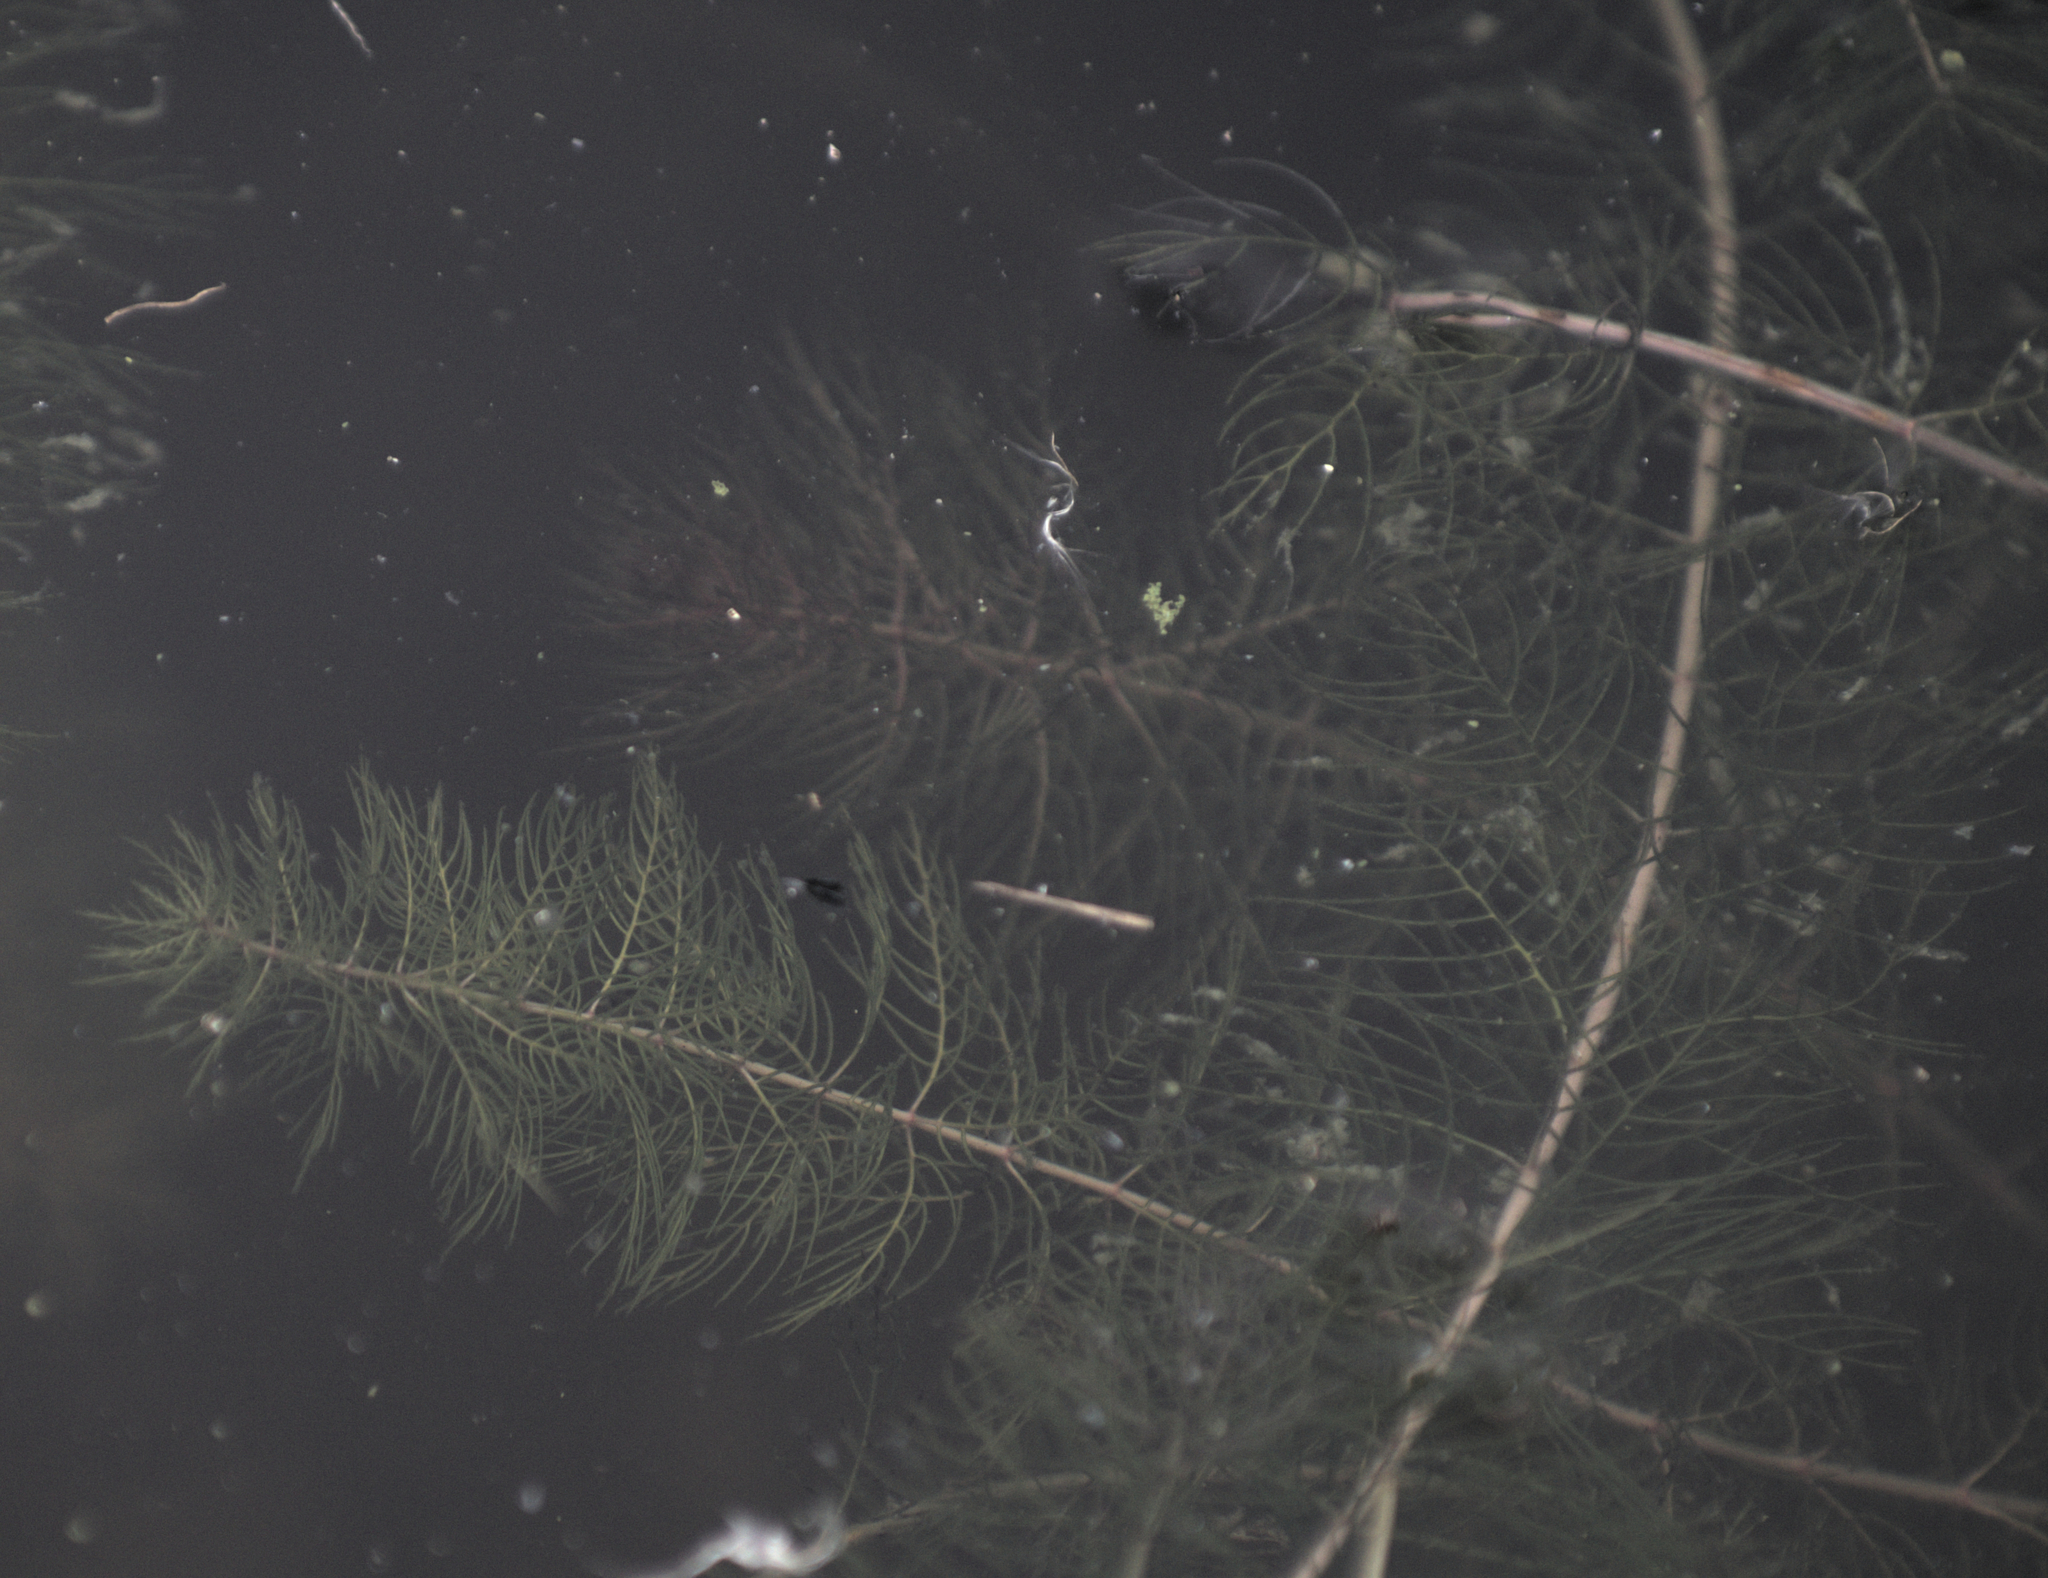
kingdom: Plantae
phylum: Tracheophyta
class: Magnoliopsida
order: Saxifragales
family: Haloragaceae
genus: Myriophyllum
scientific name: Myriophyllum sibiricum
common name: Siberian water-milfoil
